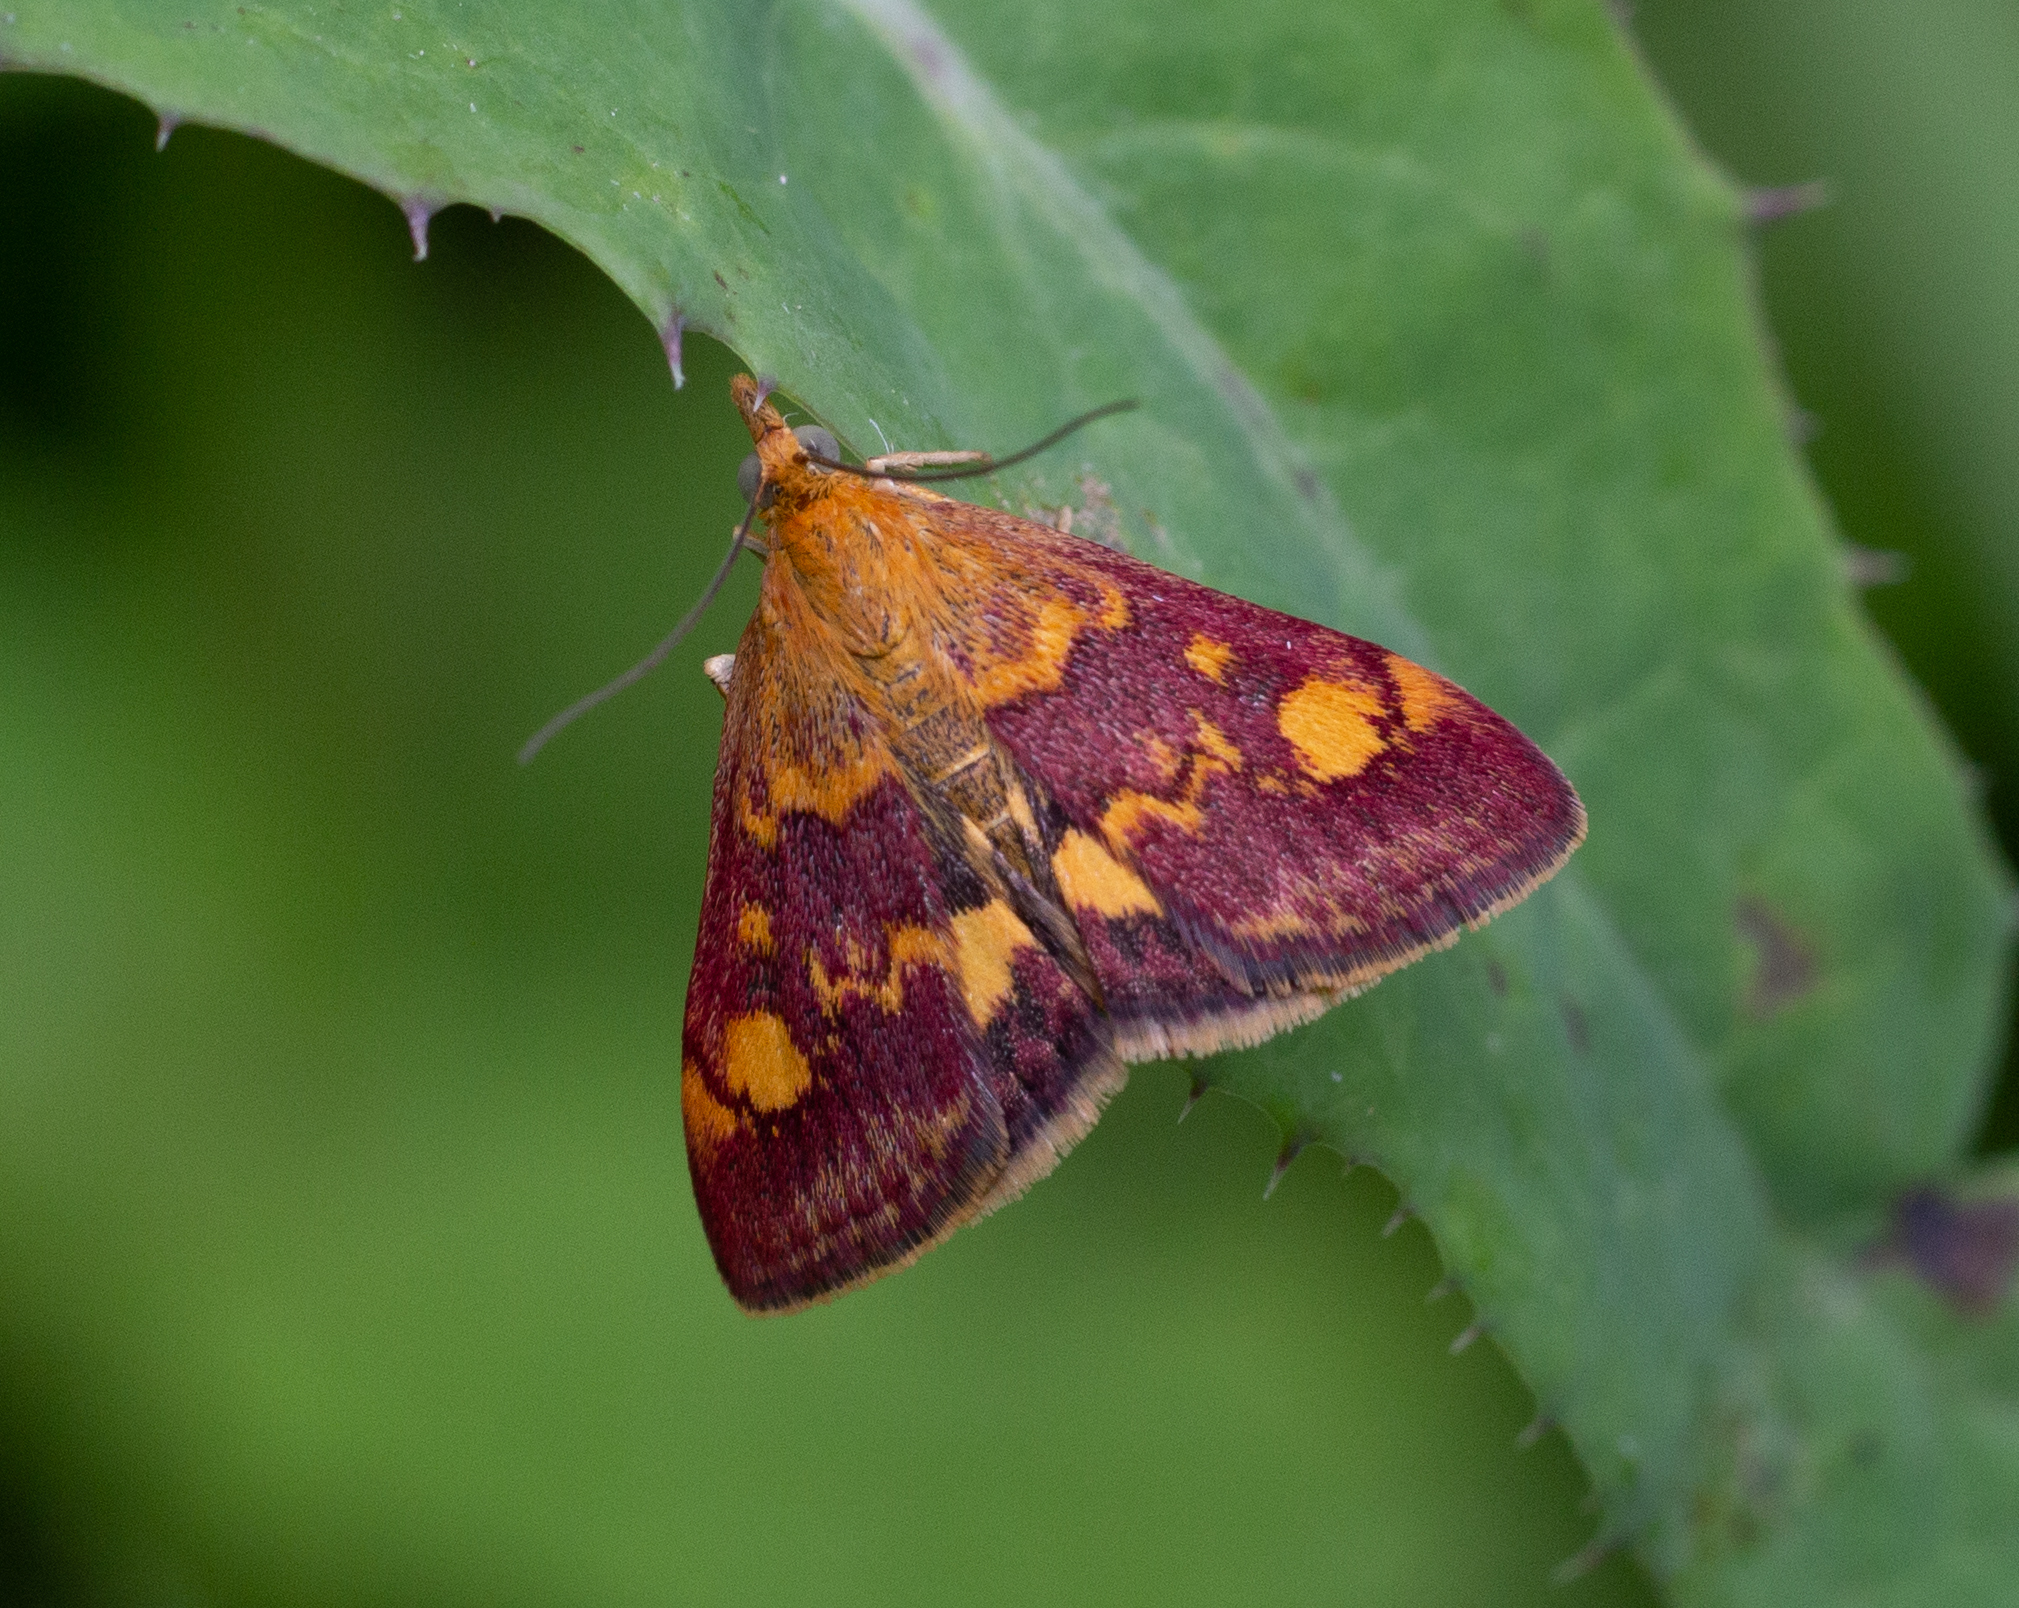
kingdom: Animalia
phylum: Arthropoda
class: Insecta
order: Lepidoptera
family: Crambidae
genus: Pyrausta
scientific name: Pyrausta aurata
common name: Small purple & gold
